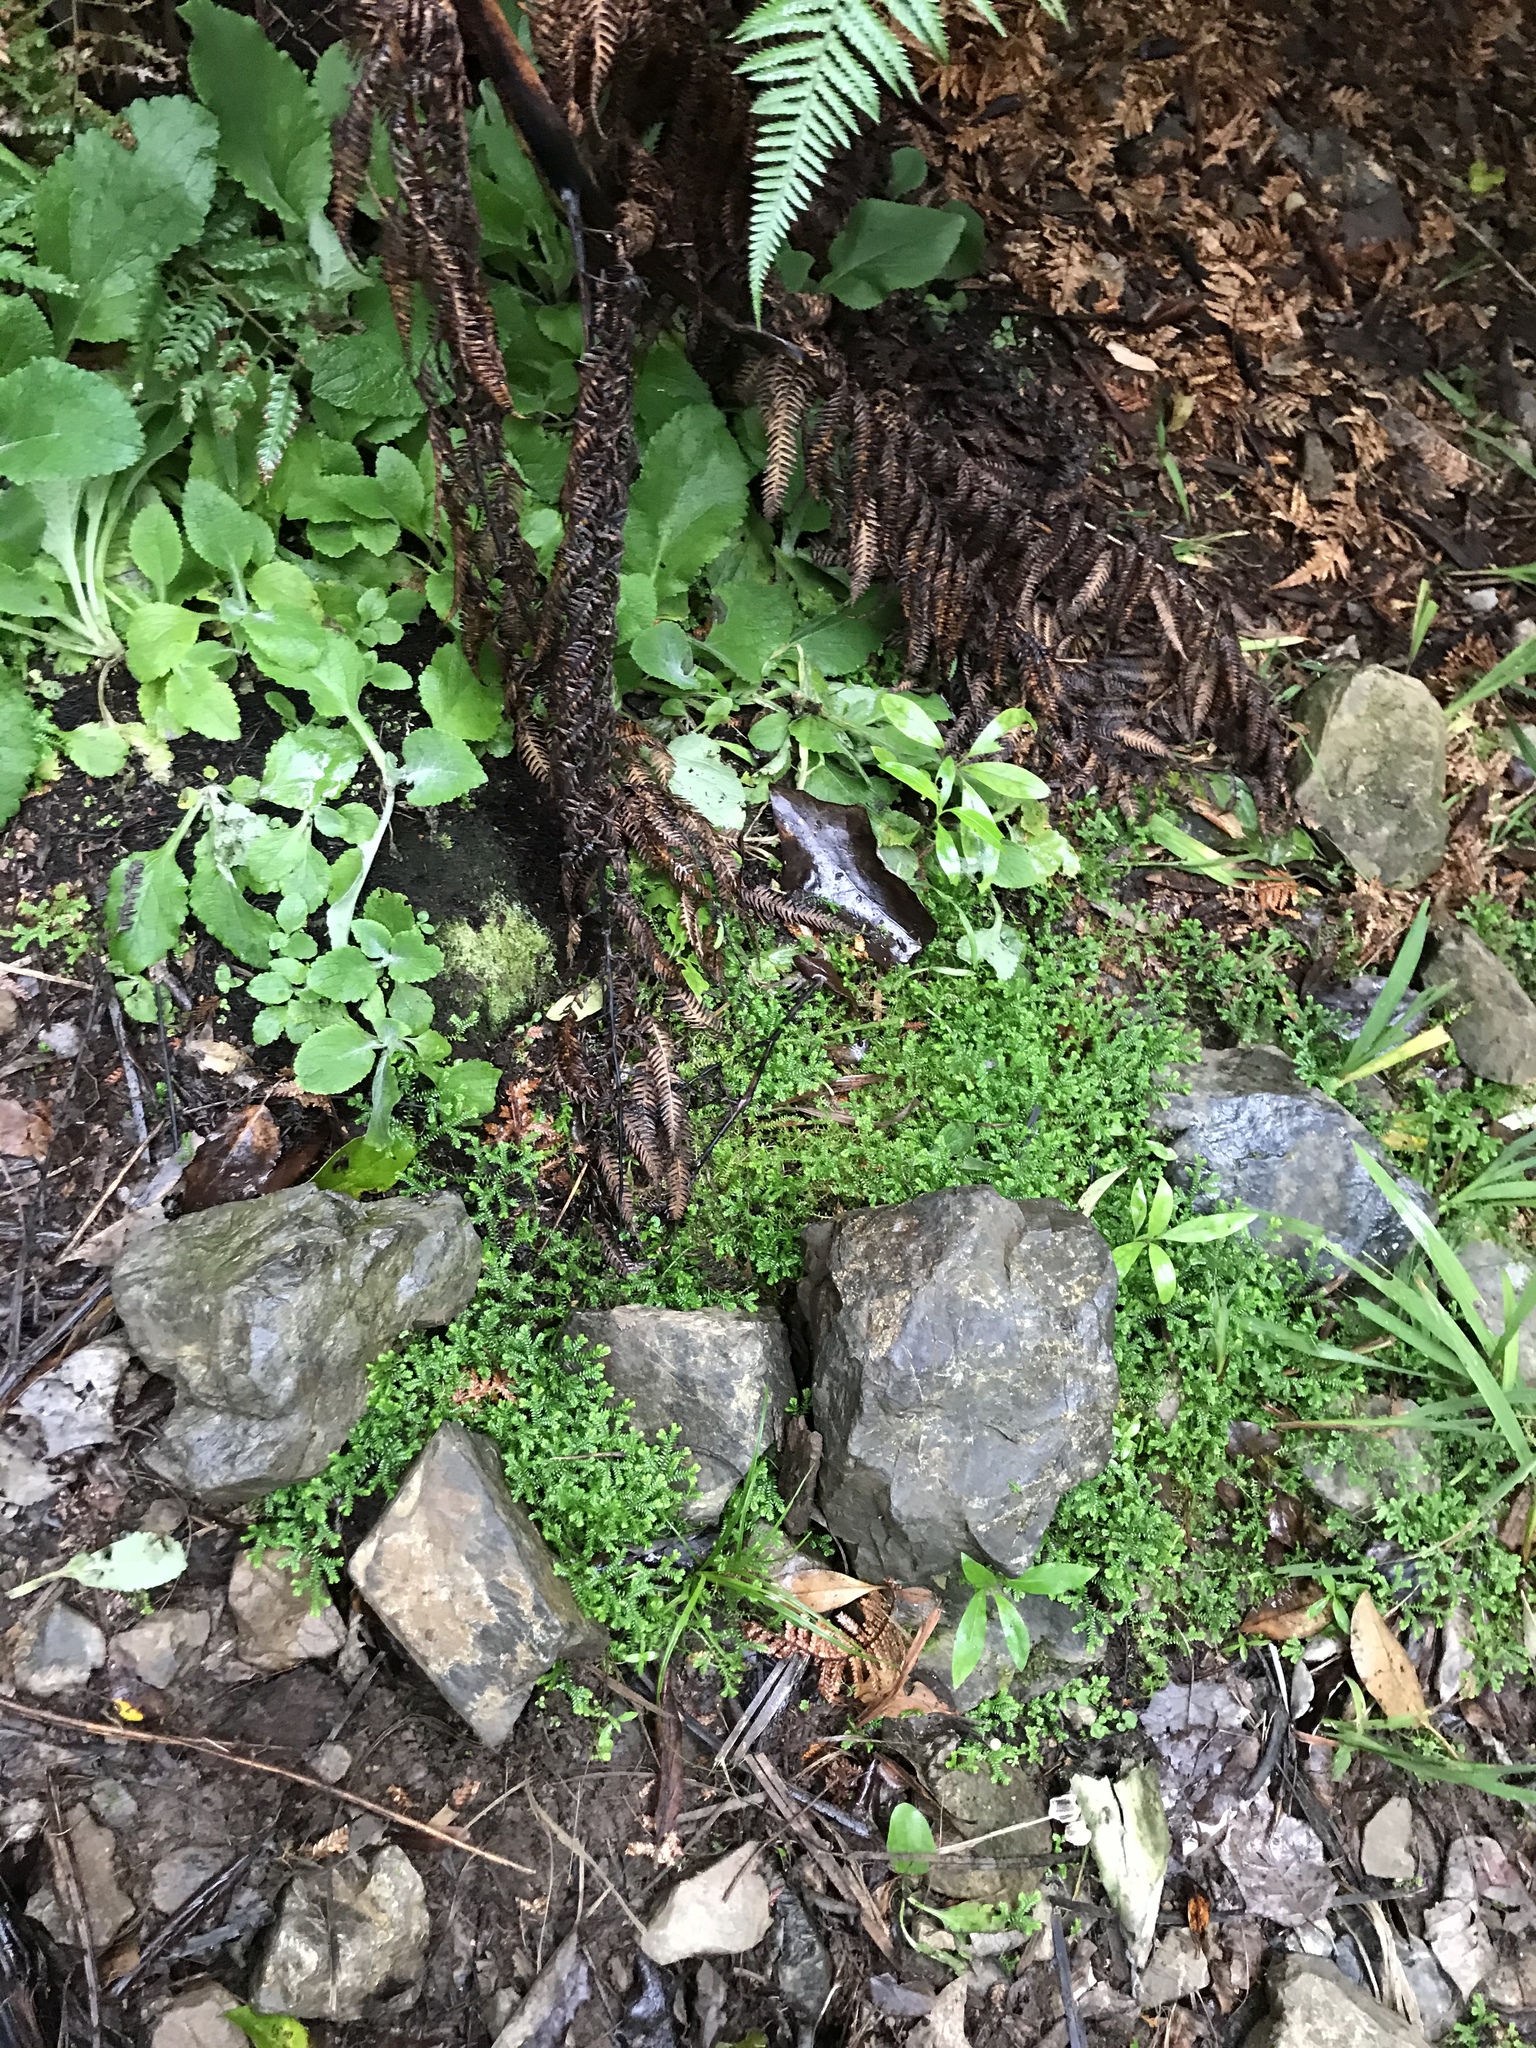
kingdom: Plantae
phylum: Tracheophyta
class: Lycopodiopsida
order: Selaginellales
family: Selaginellaceae
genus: Selaginella
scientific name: Selaginella kraussiana
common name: Krauss' spikemoss
